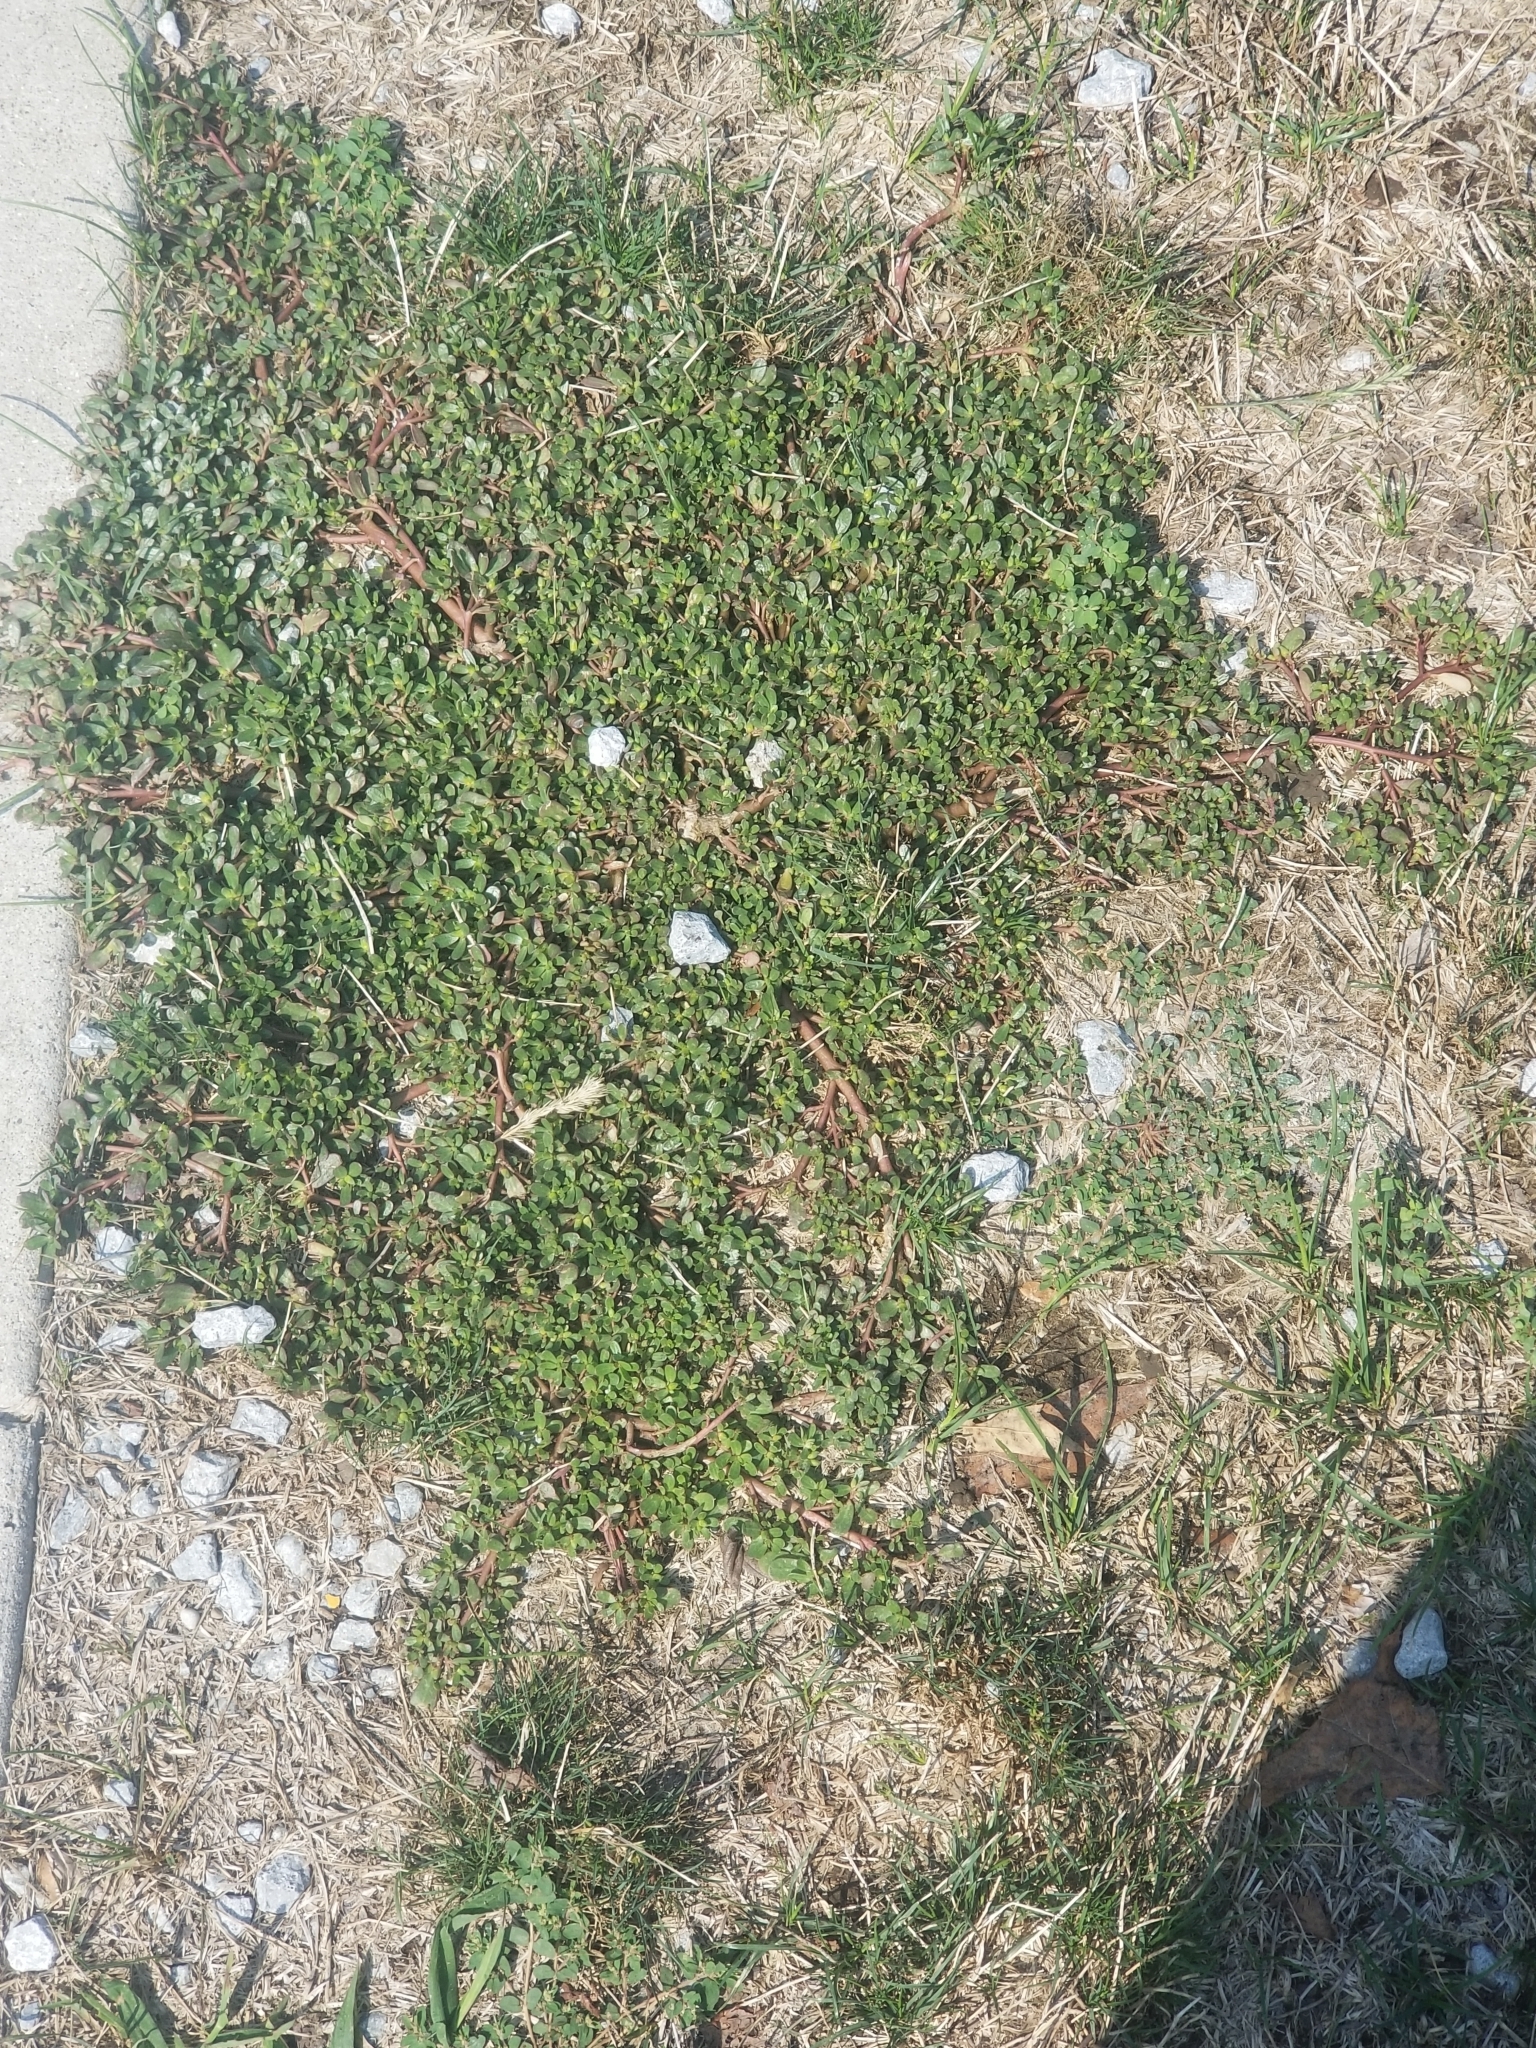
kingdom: Plantae
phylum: Tracheophyta
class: Magnoliopsida
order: Caryophyllales
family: Portulacaceae
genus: Portulaca
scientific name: Portulaca oleracea
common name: Common purslane
